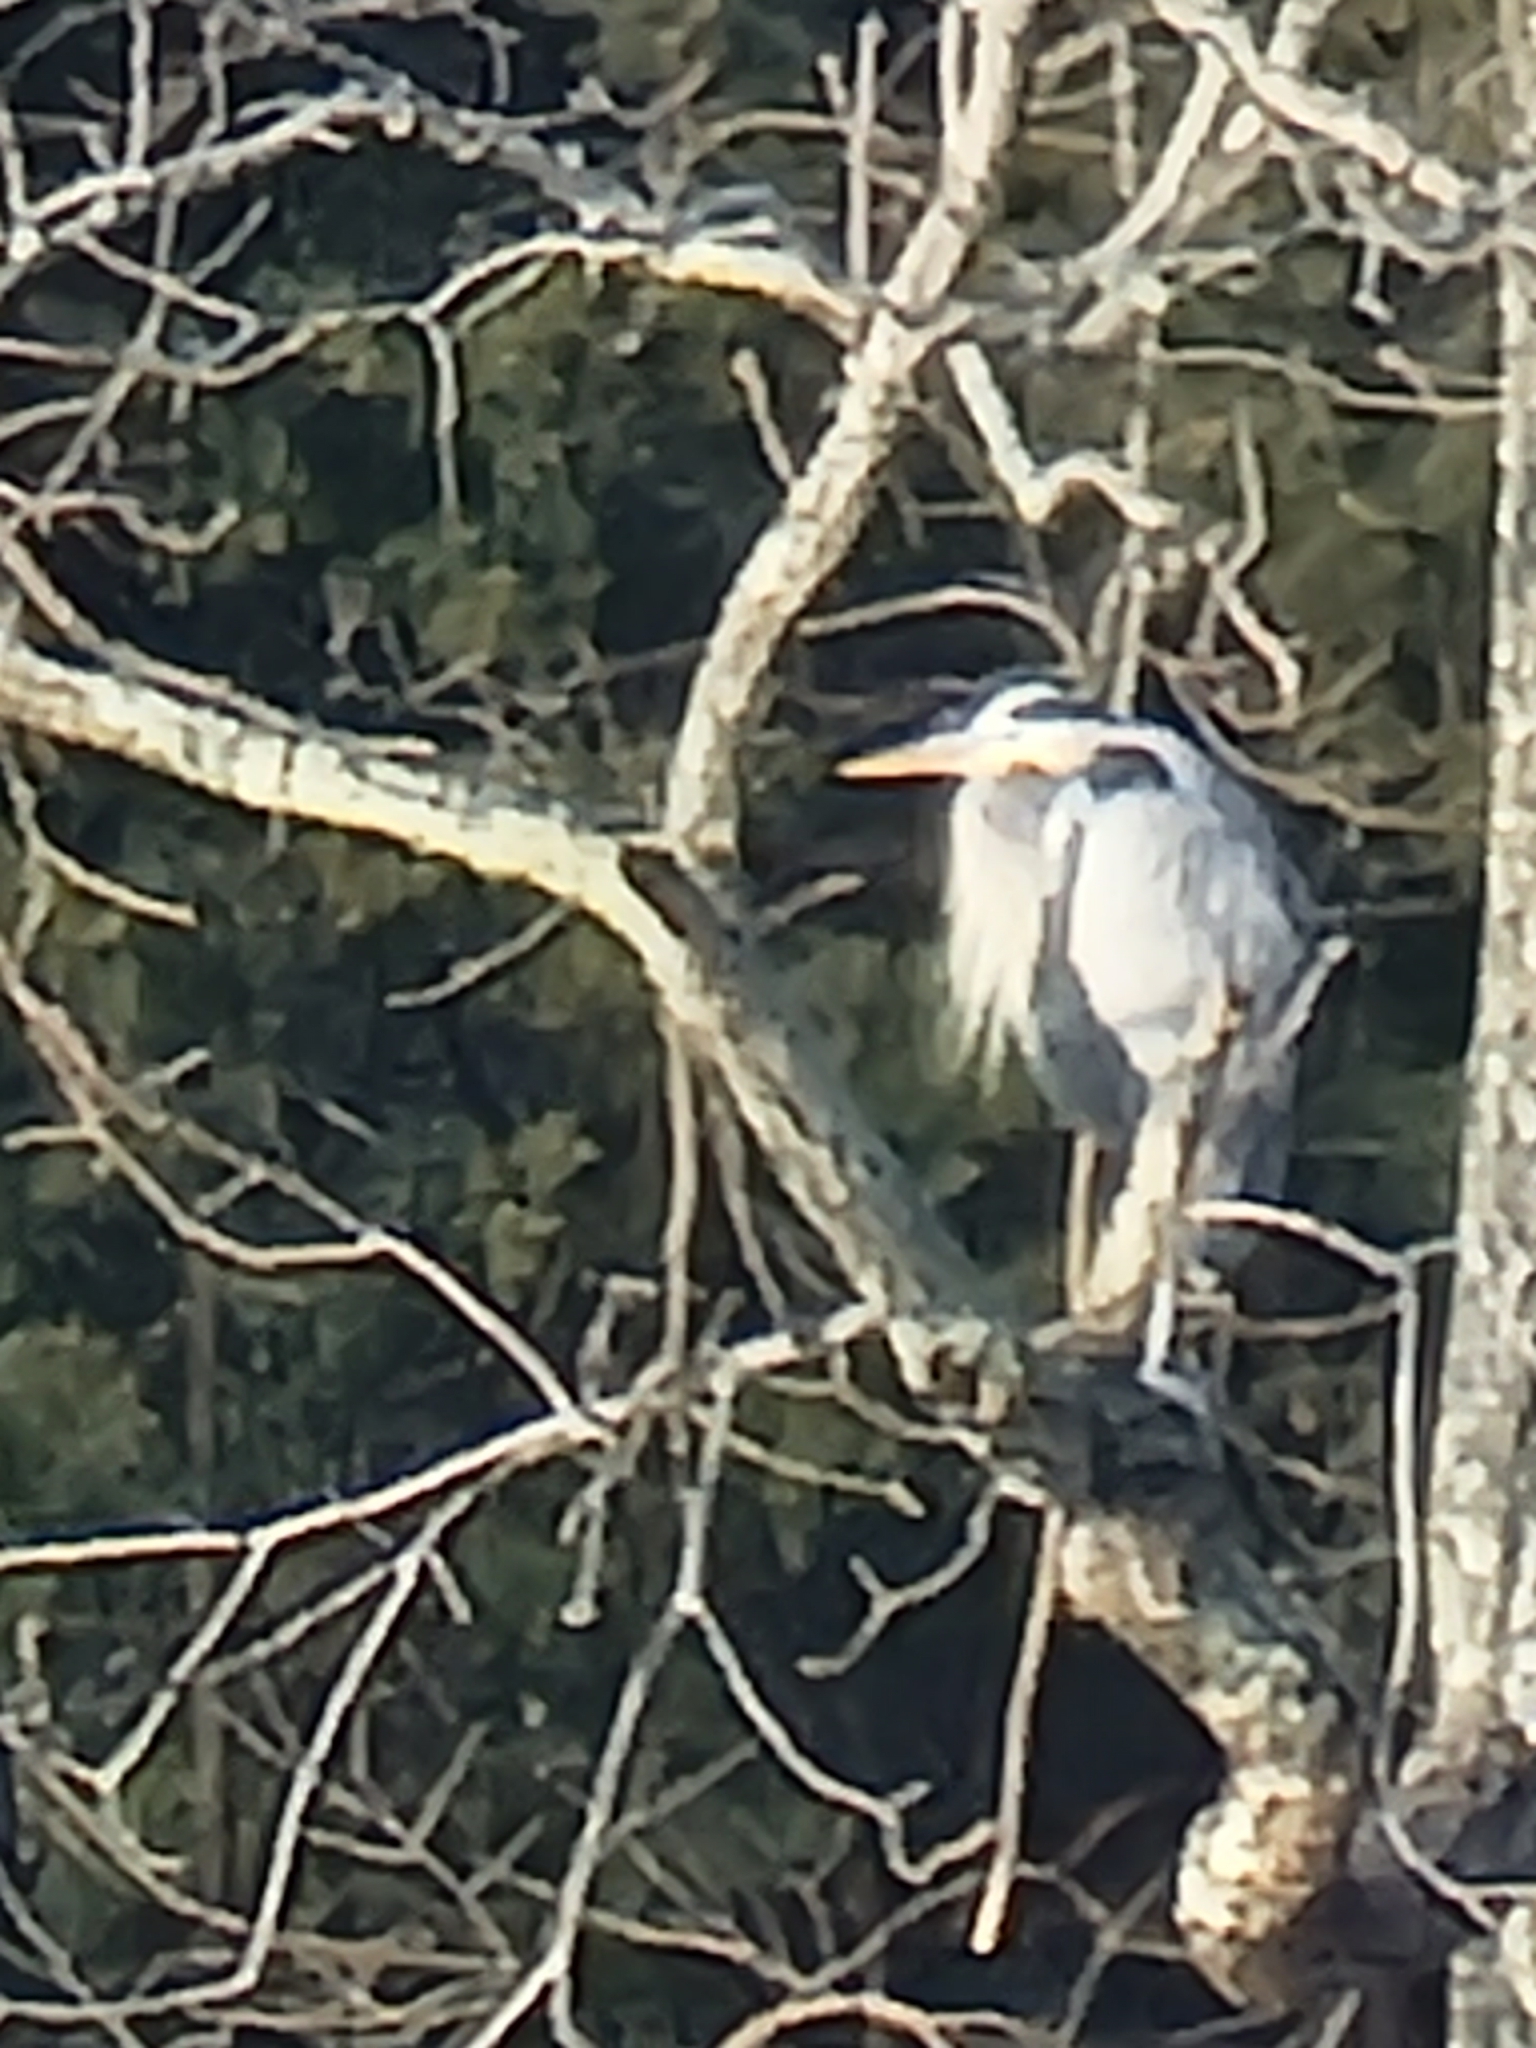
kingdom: Animalia
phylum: Chordata
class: Aves
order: Pelecaniformes
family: Ardeidae
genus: Ardea
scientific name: Ardea herodias
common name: Great blue heron
